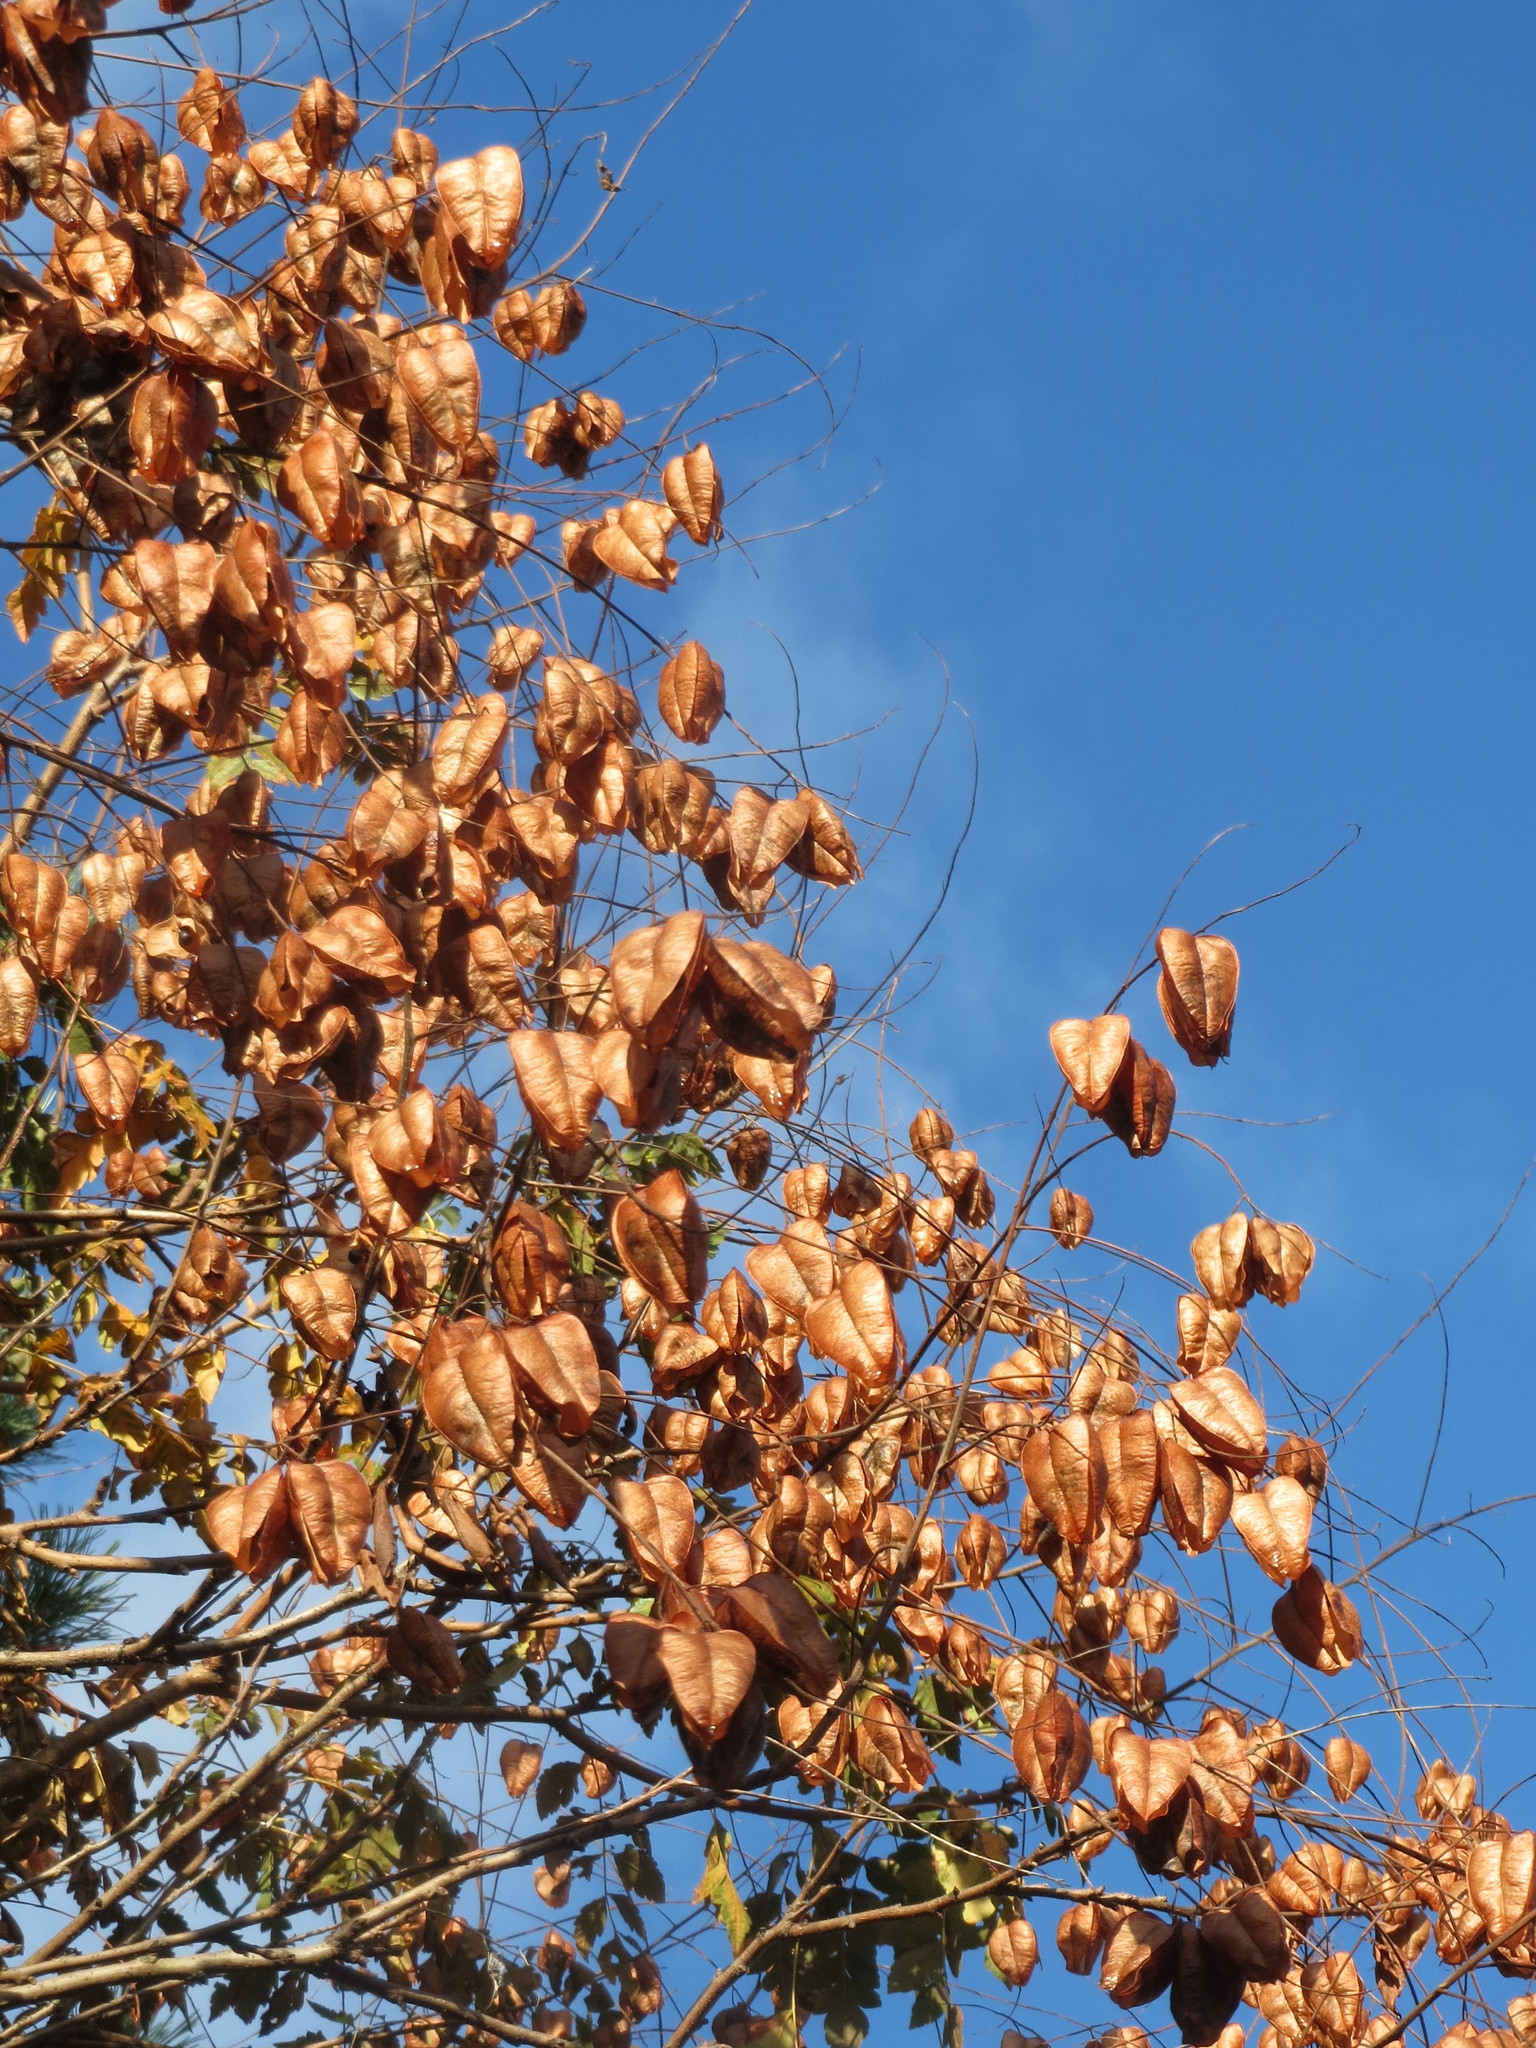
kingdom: Plantae
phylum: Tracheophyta
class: Magnoliopsida
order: Sapindales
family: Sapindaceae
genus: Koelreuteria
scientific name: Koelreuteria paniculata
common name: Pride-of-india
